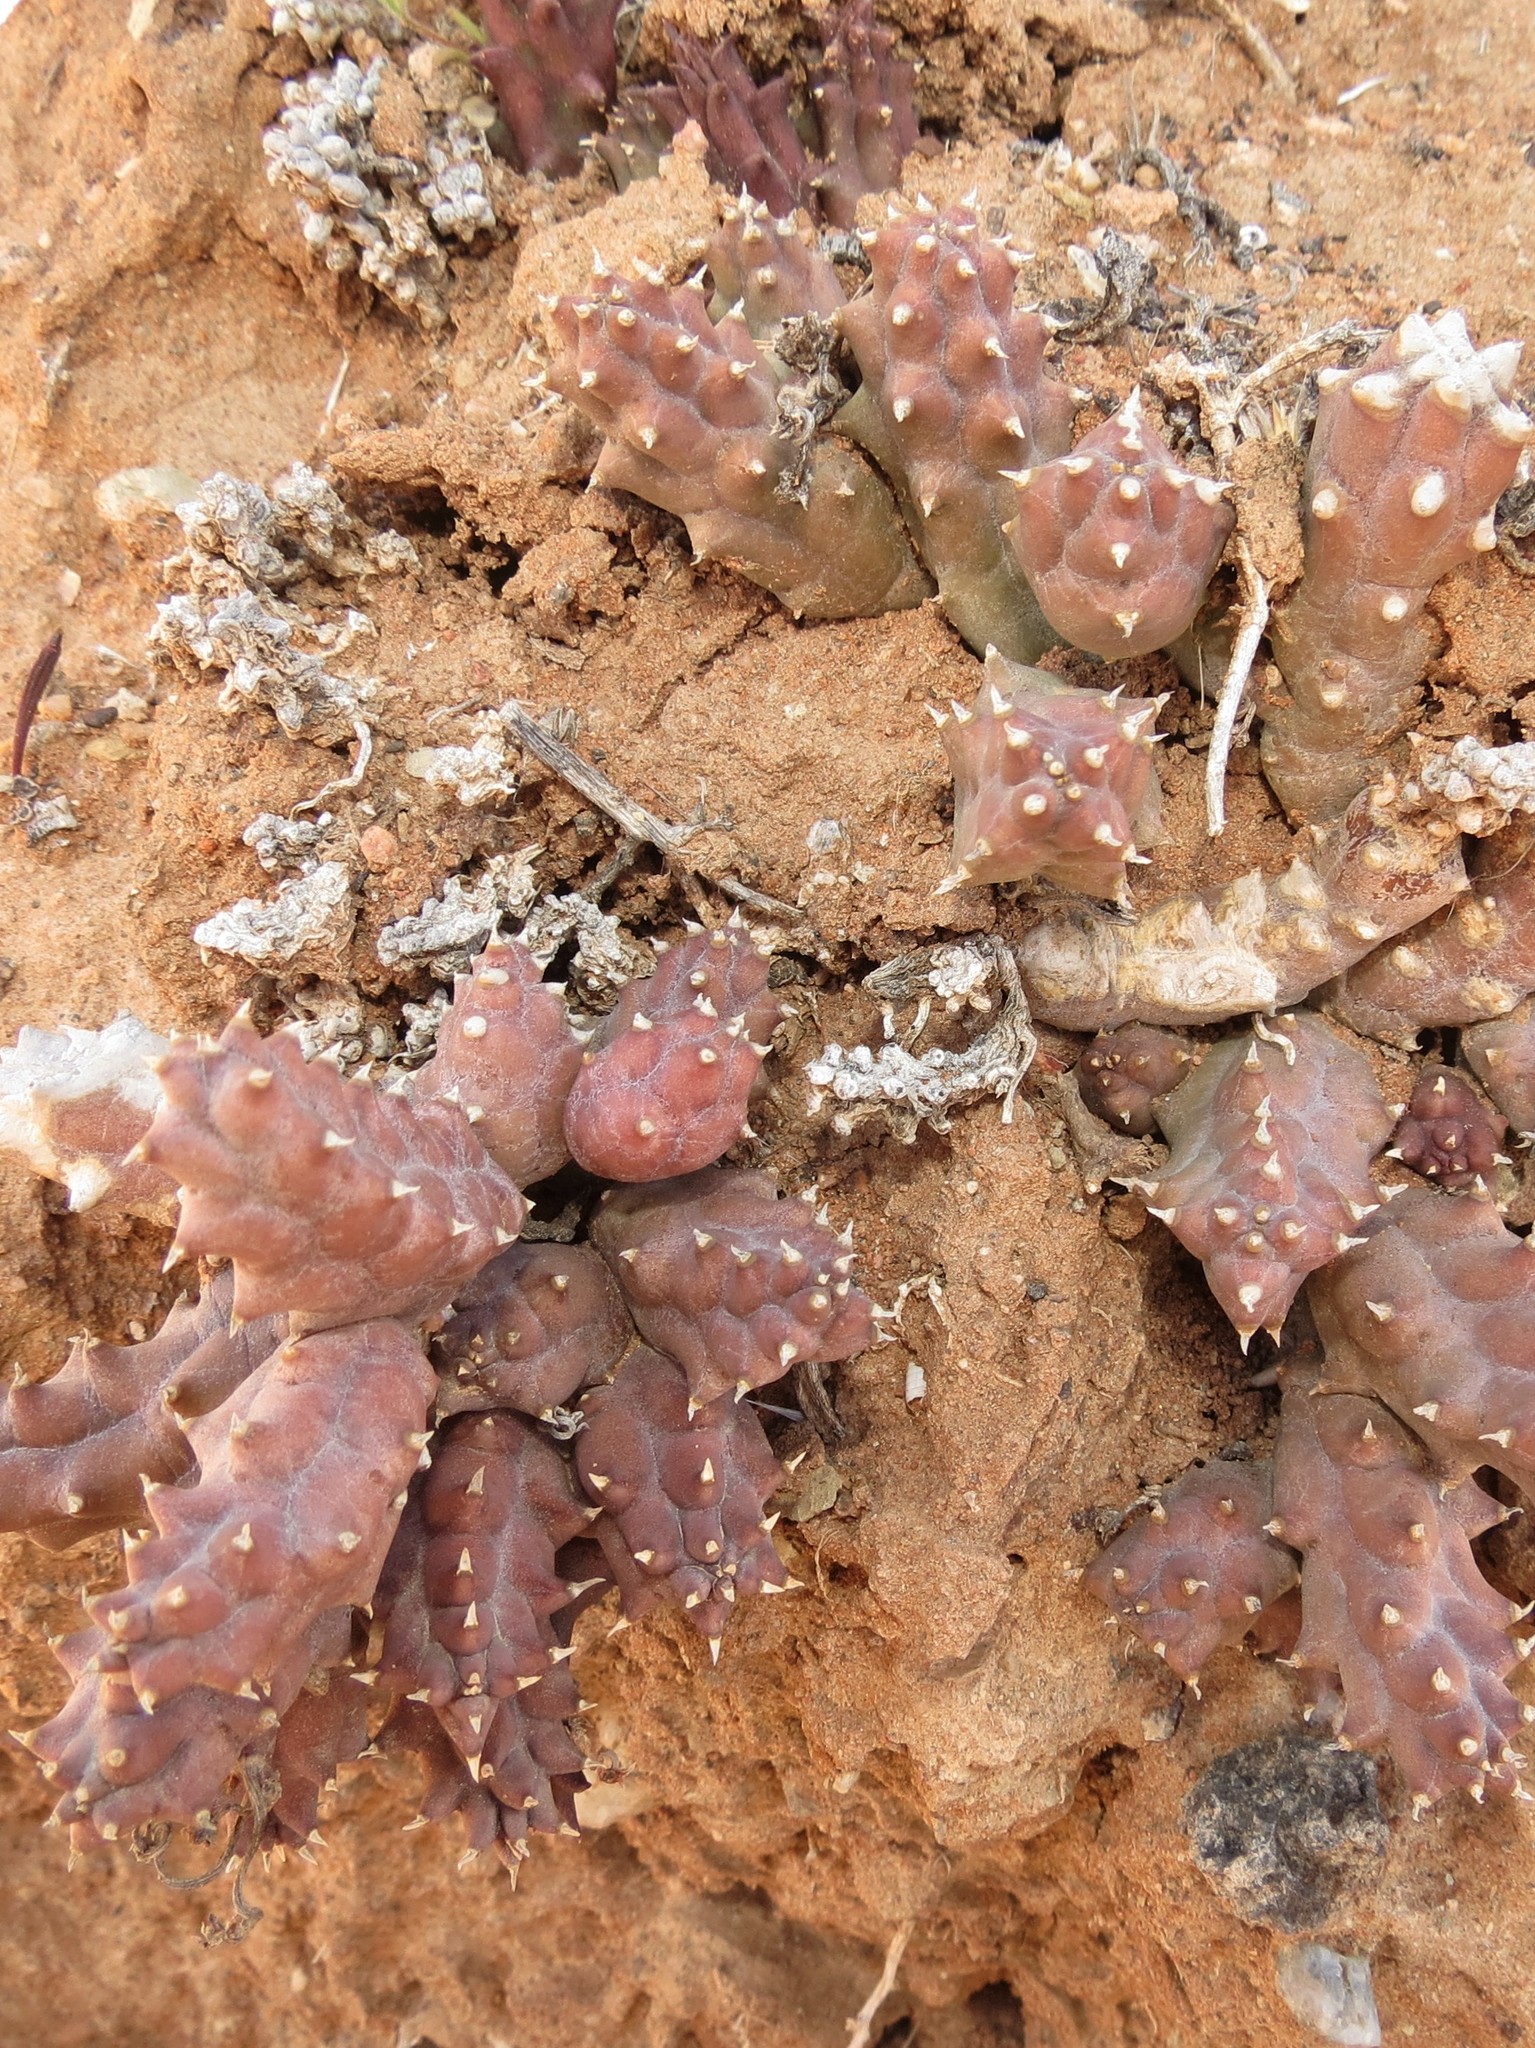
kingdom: Plantae
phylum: Tracheophyta
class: Magnoliopsida
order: Gentianales
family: Apocynaceae
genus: Ceropegia
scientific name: Ceropegia caespitosa
